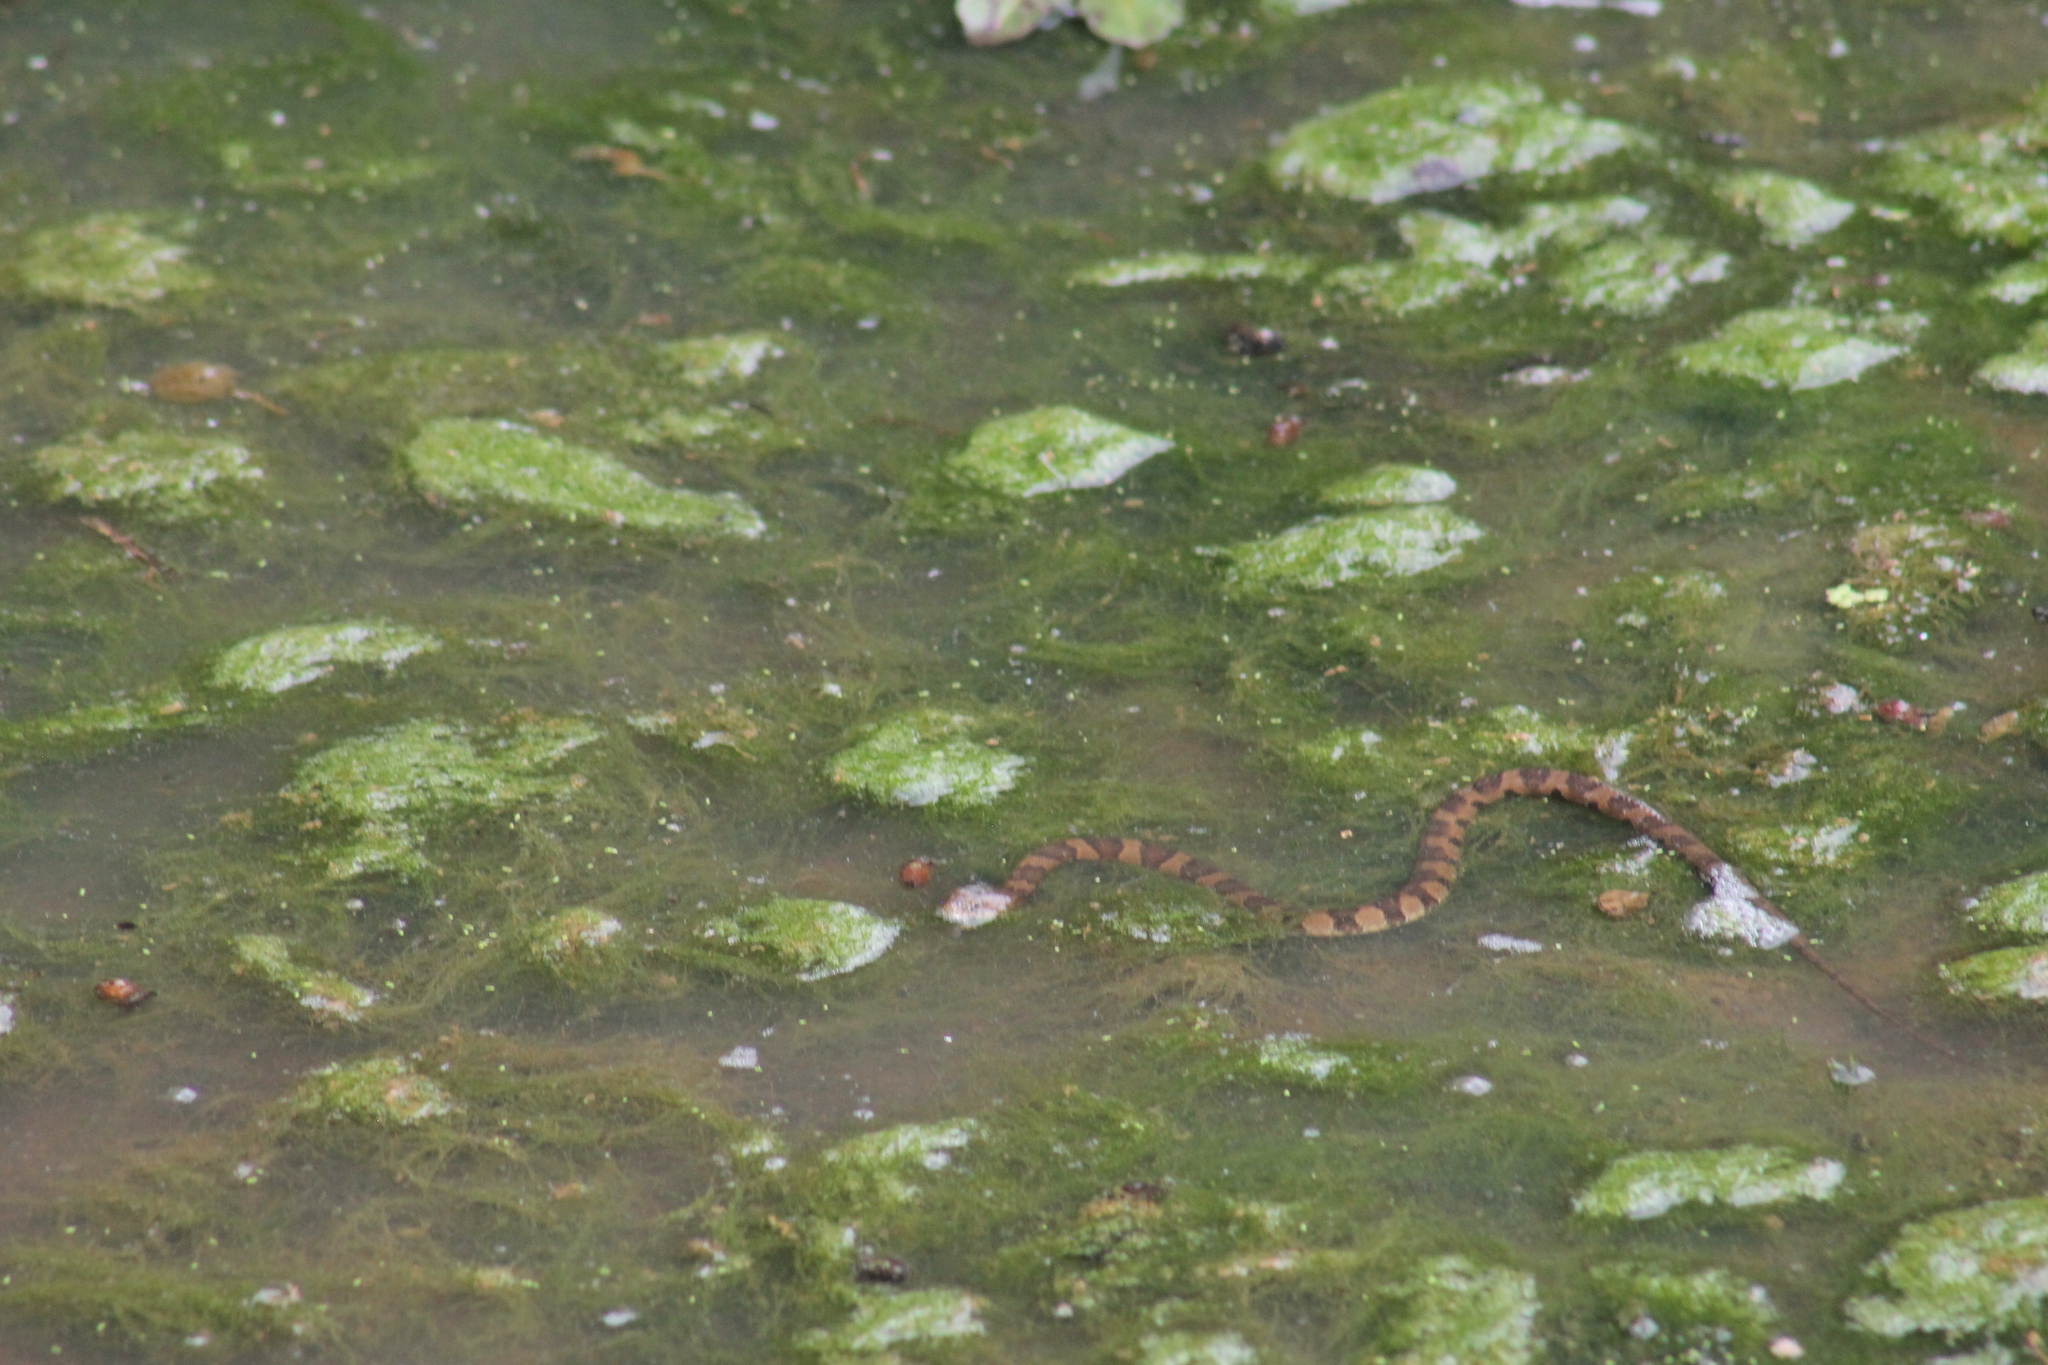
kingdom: Animalia
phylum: Chordata
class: Squamata
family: Colubridae
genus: Nerodia
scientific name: Nerodia sipedon
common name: Northern water snake
